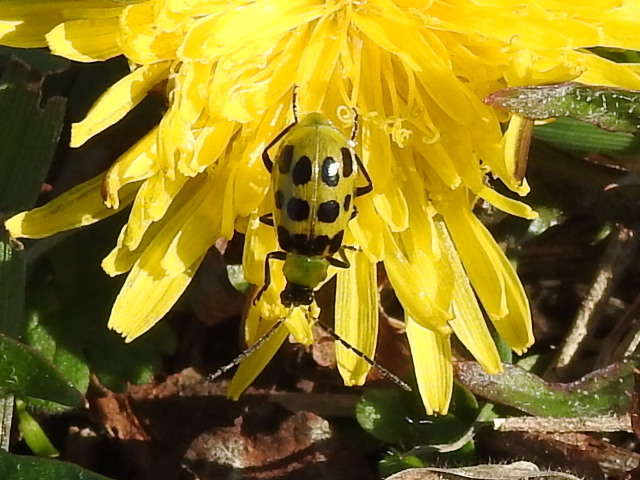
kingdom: Animalia
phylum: Arthropoda
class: Insecta
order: Coleoptera
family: Chrysomelidae
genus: Diabrotica
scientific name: Diabrotica undecimpunctata
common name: Spotted cucumber beetle
